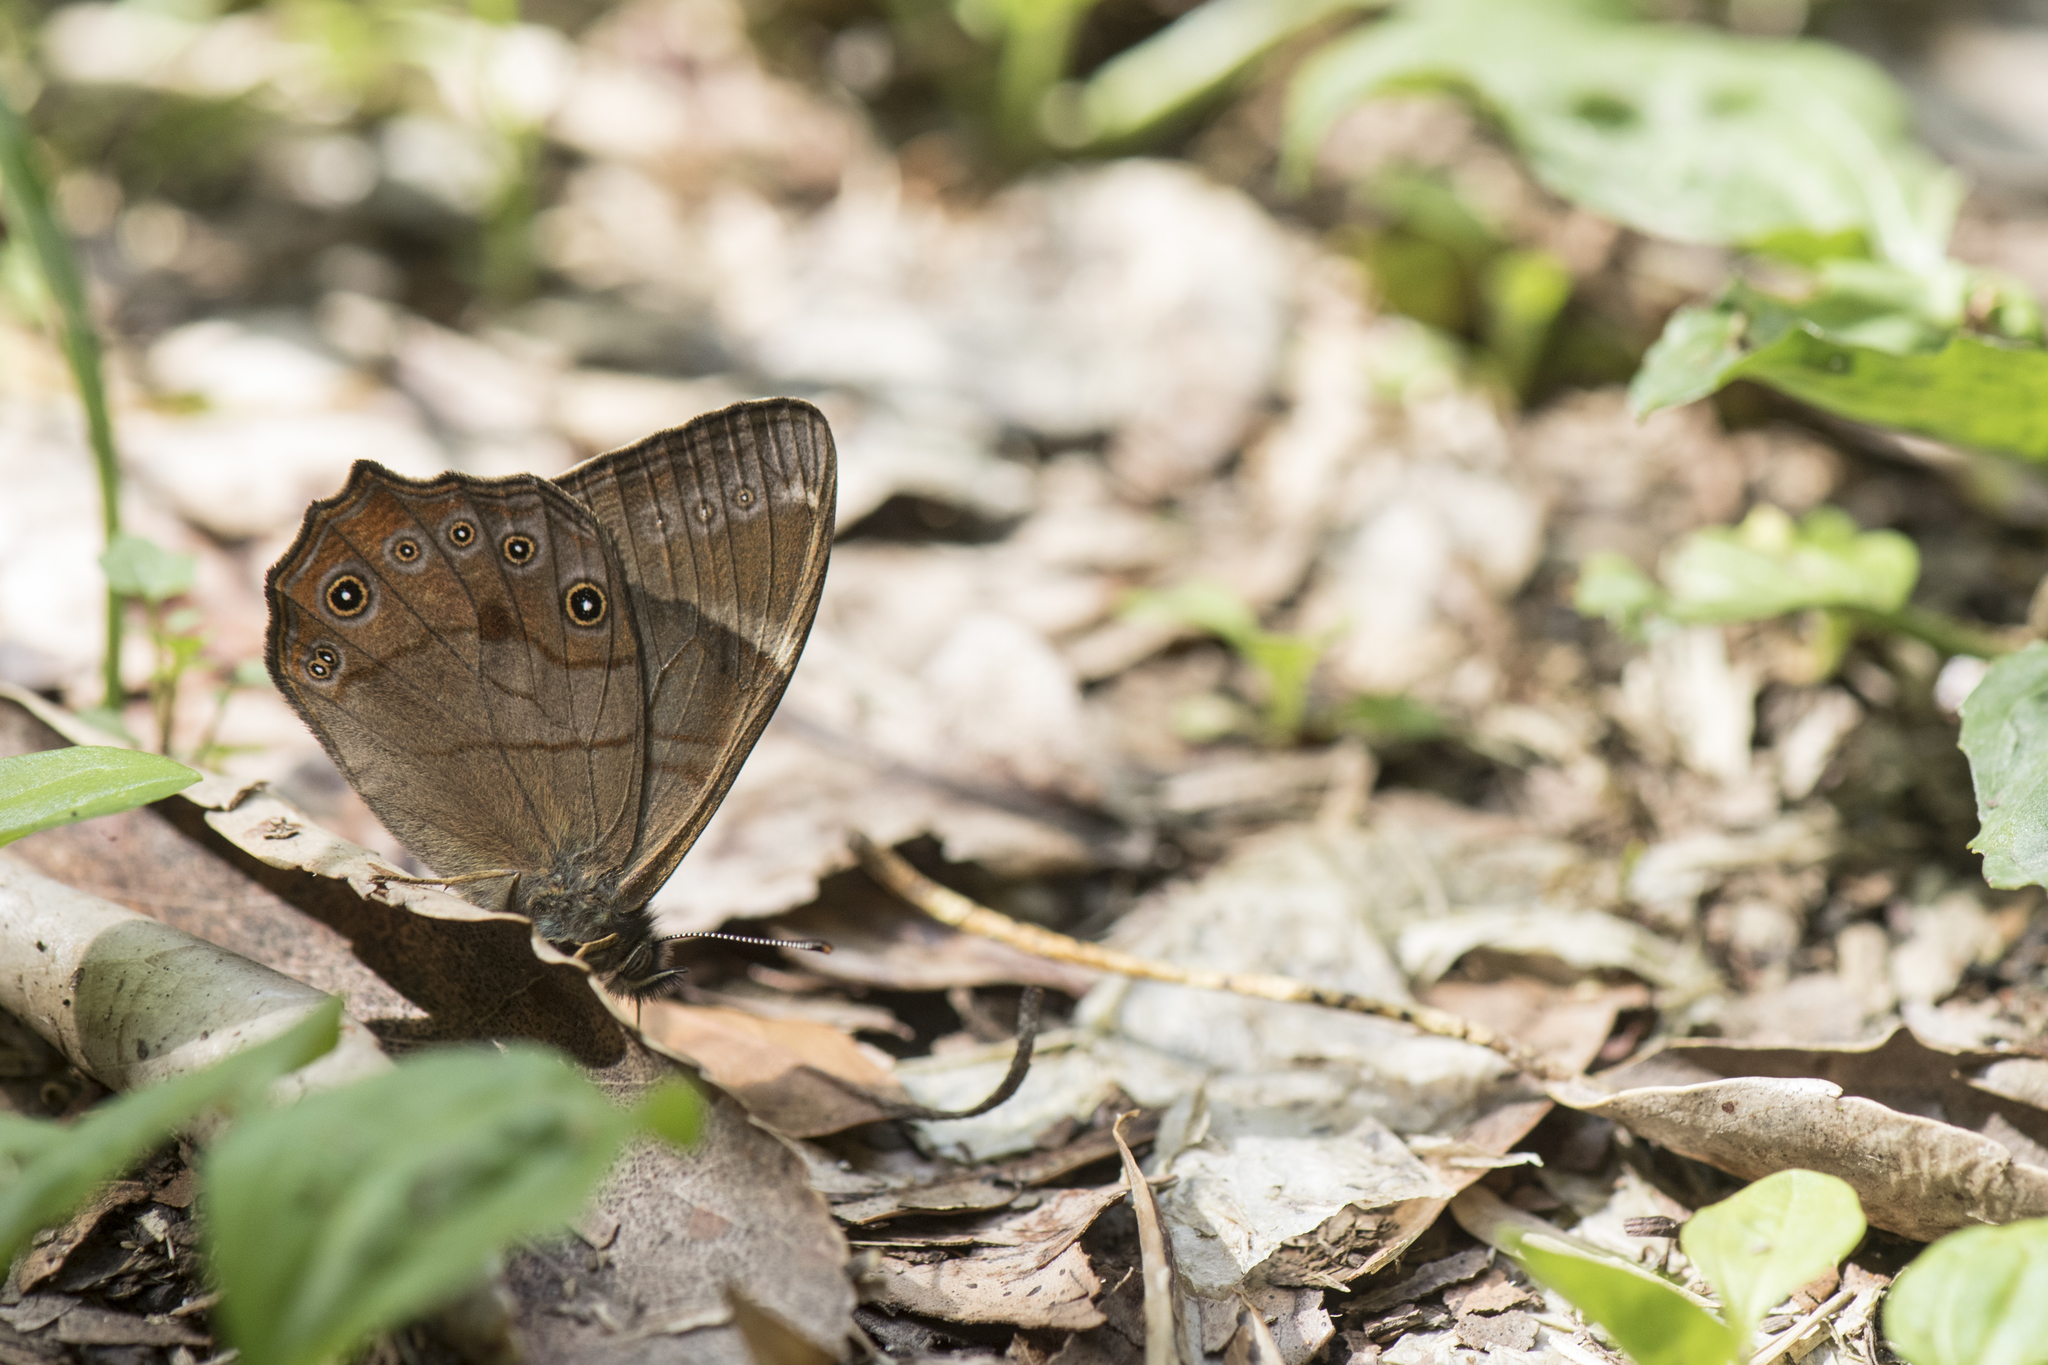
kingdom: Animalia
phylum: Arthropoda
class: Insecta
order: Lepidoptera
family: Nymphalidae
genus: Lethe
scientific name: Lethe hyrania
